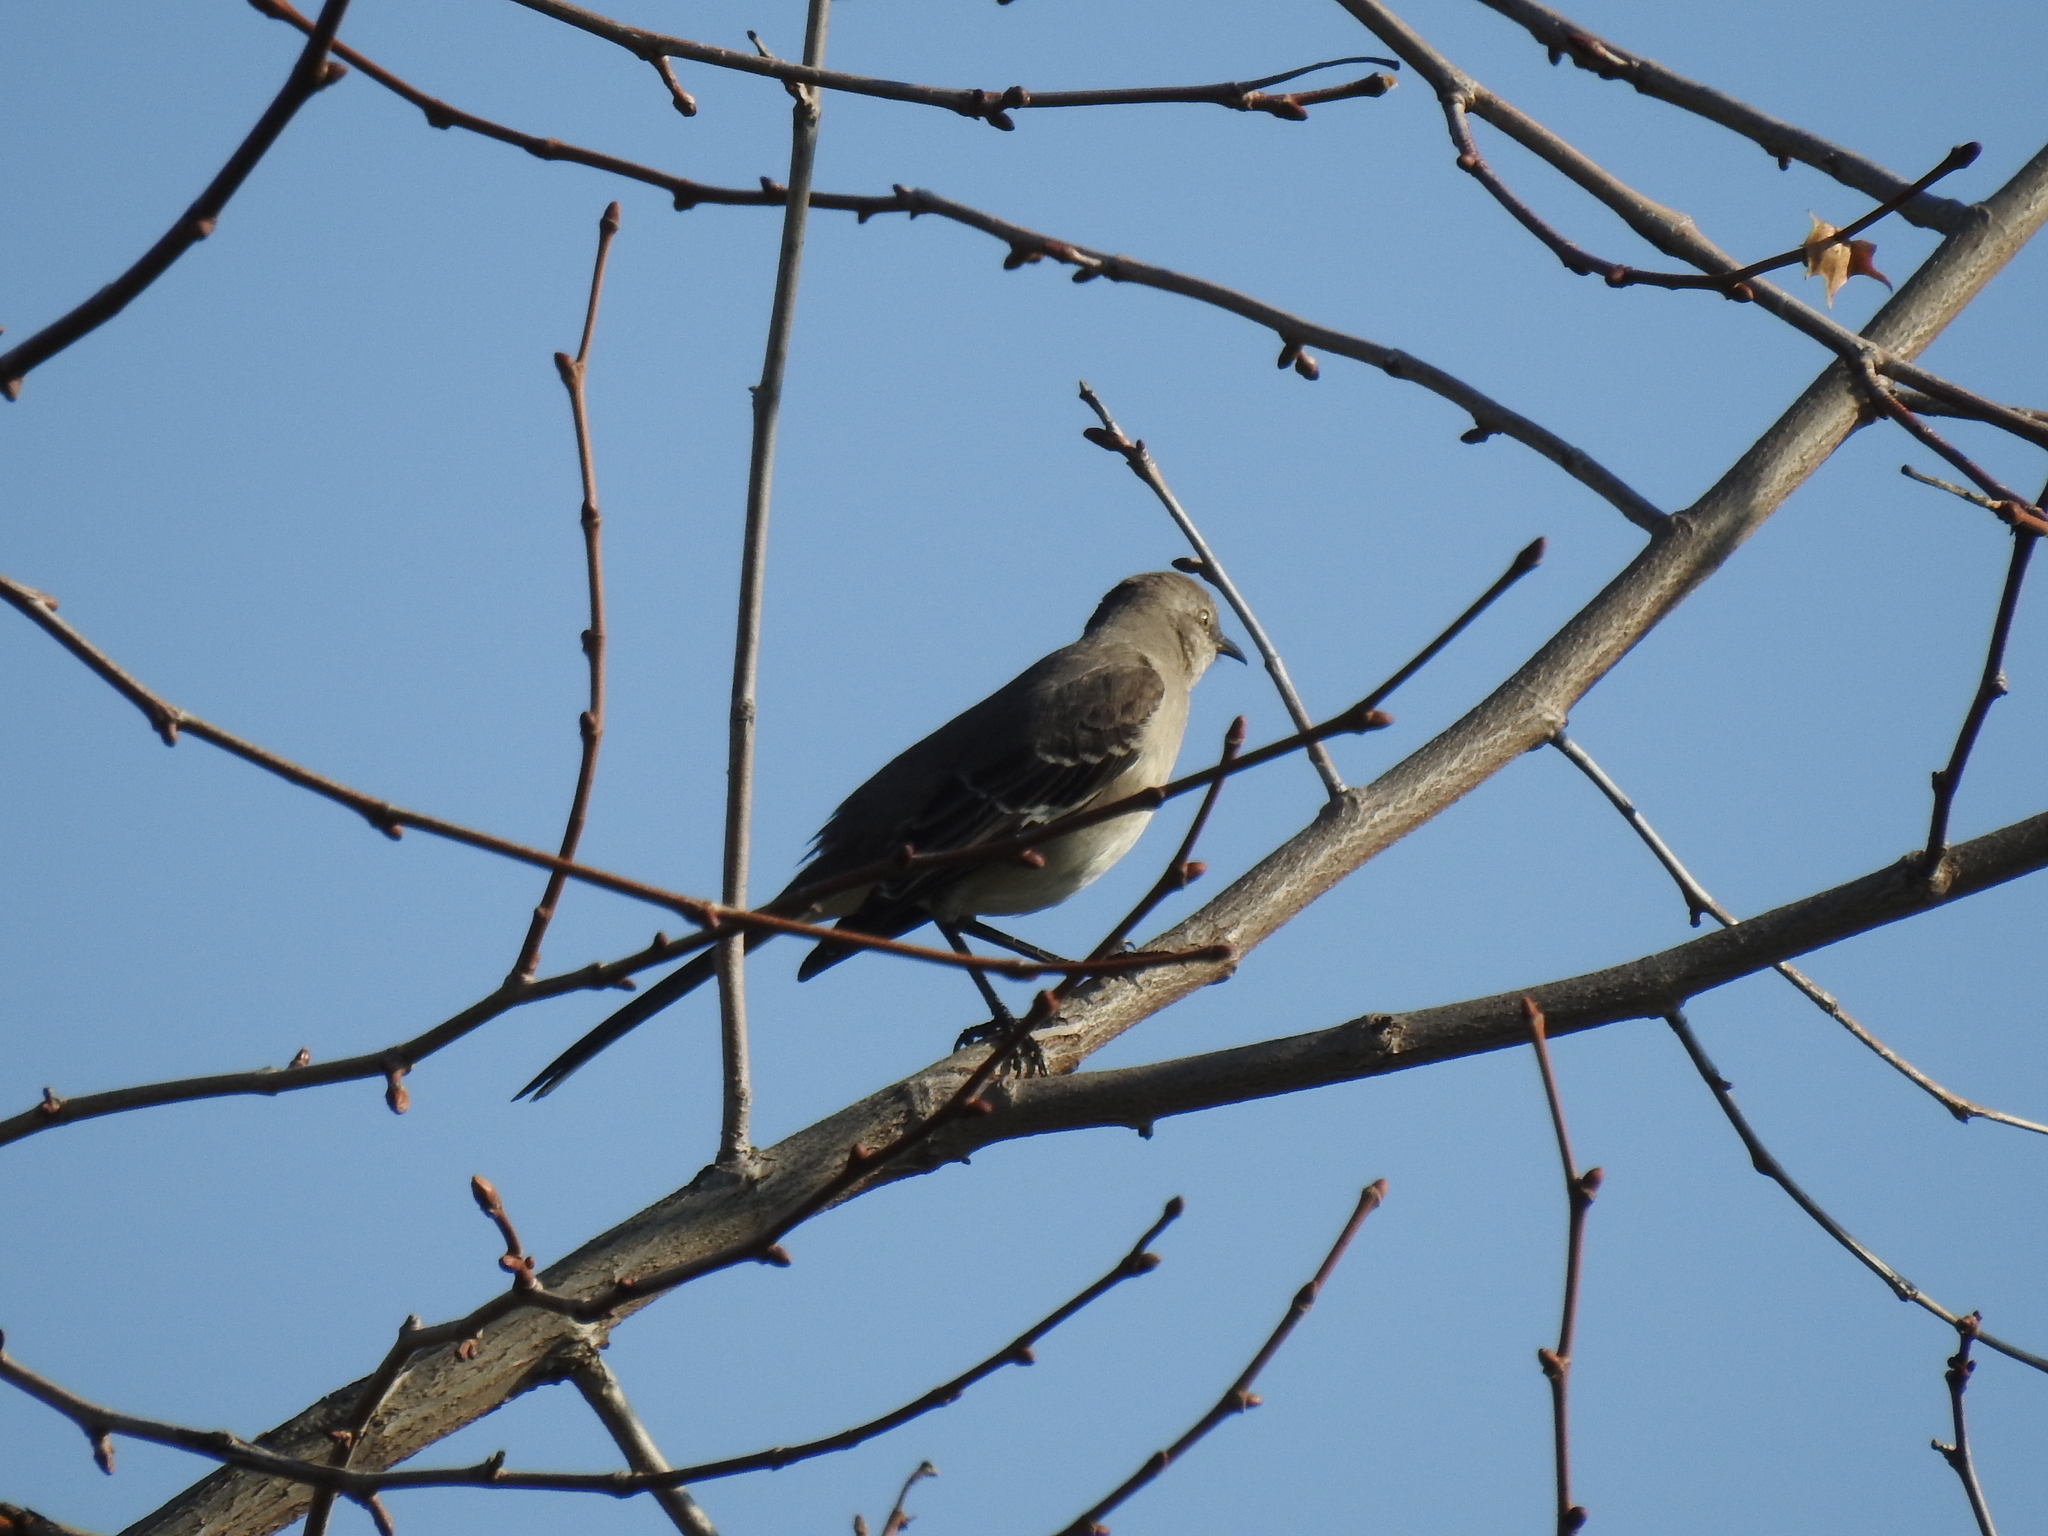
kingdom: Animalia
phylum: Chordata
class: Aves
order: Passeriformes
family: Mimidae
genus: Mimus
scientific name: Mimus polyglottos
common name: Northern mockingbird
